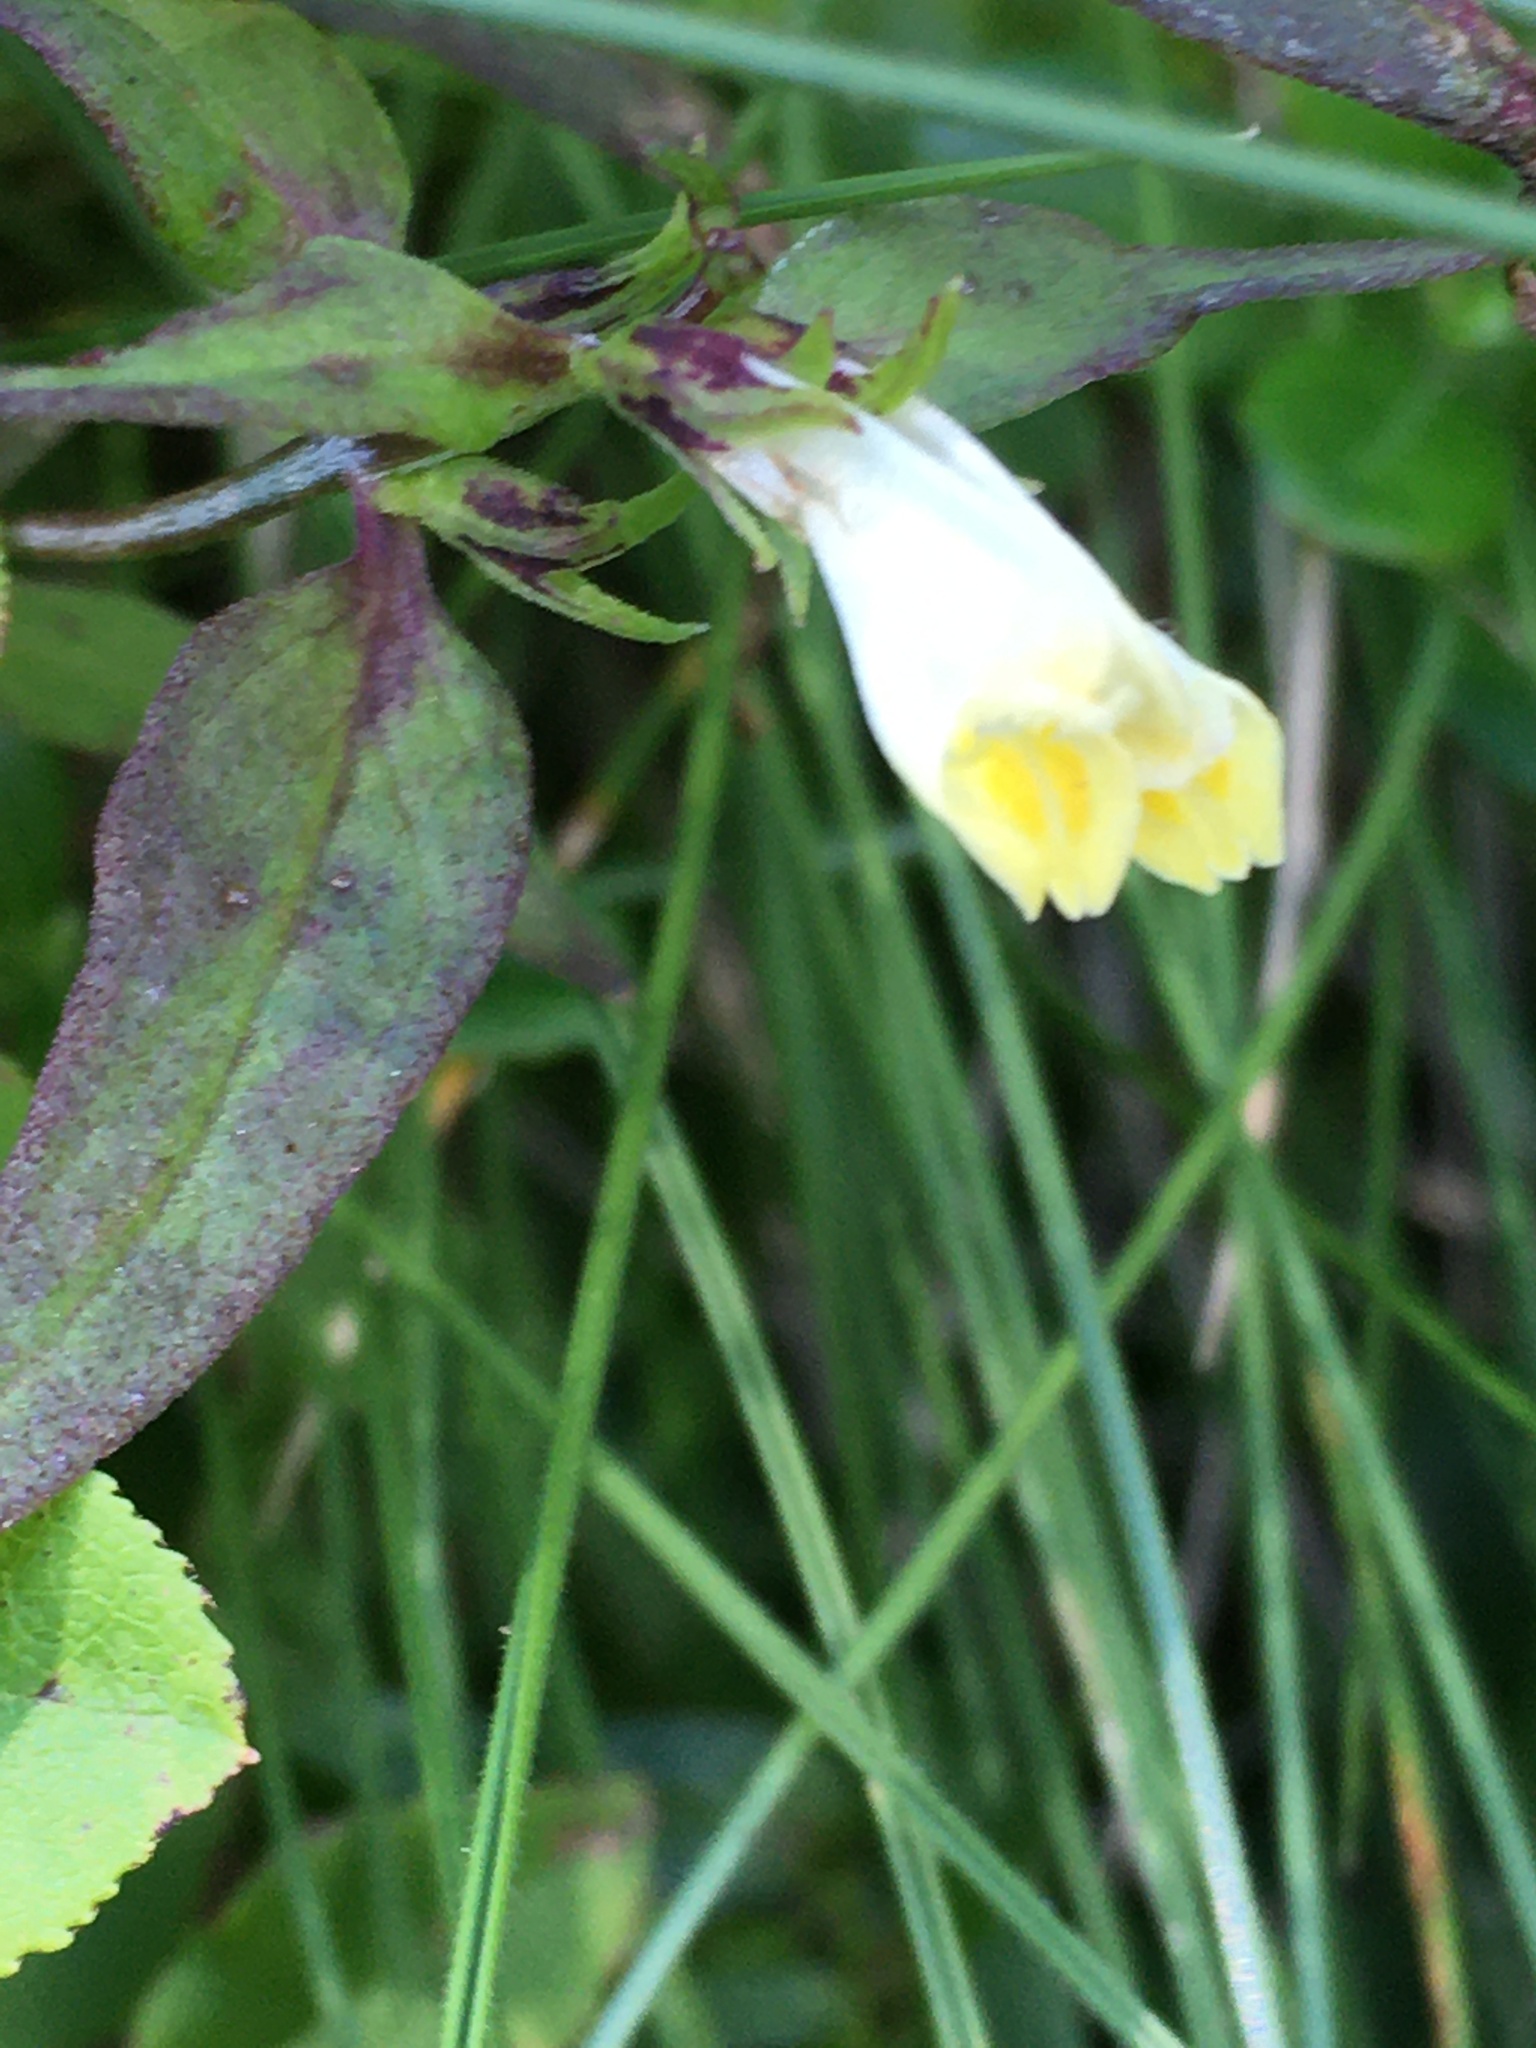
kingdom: Plantae
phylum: Tracheophyta
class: Magnoliopsida
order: Lamiales
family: Orobanchaceae
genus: Melampyrum
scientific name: Melampyrum pratense
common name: Common cow-wheat
